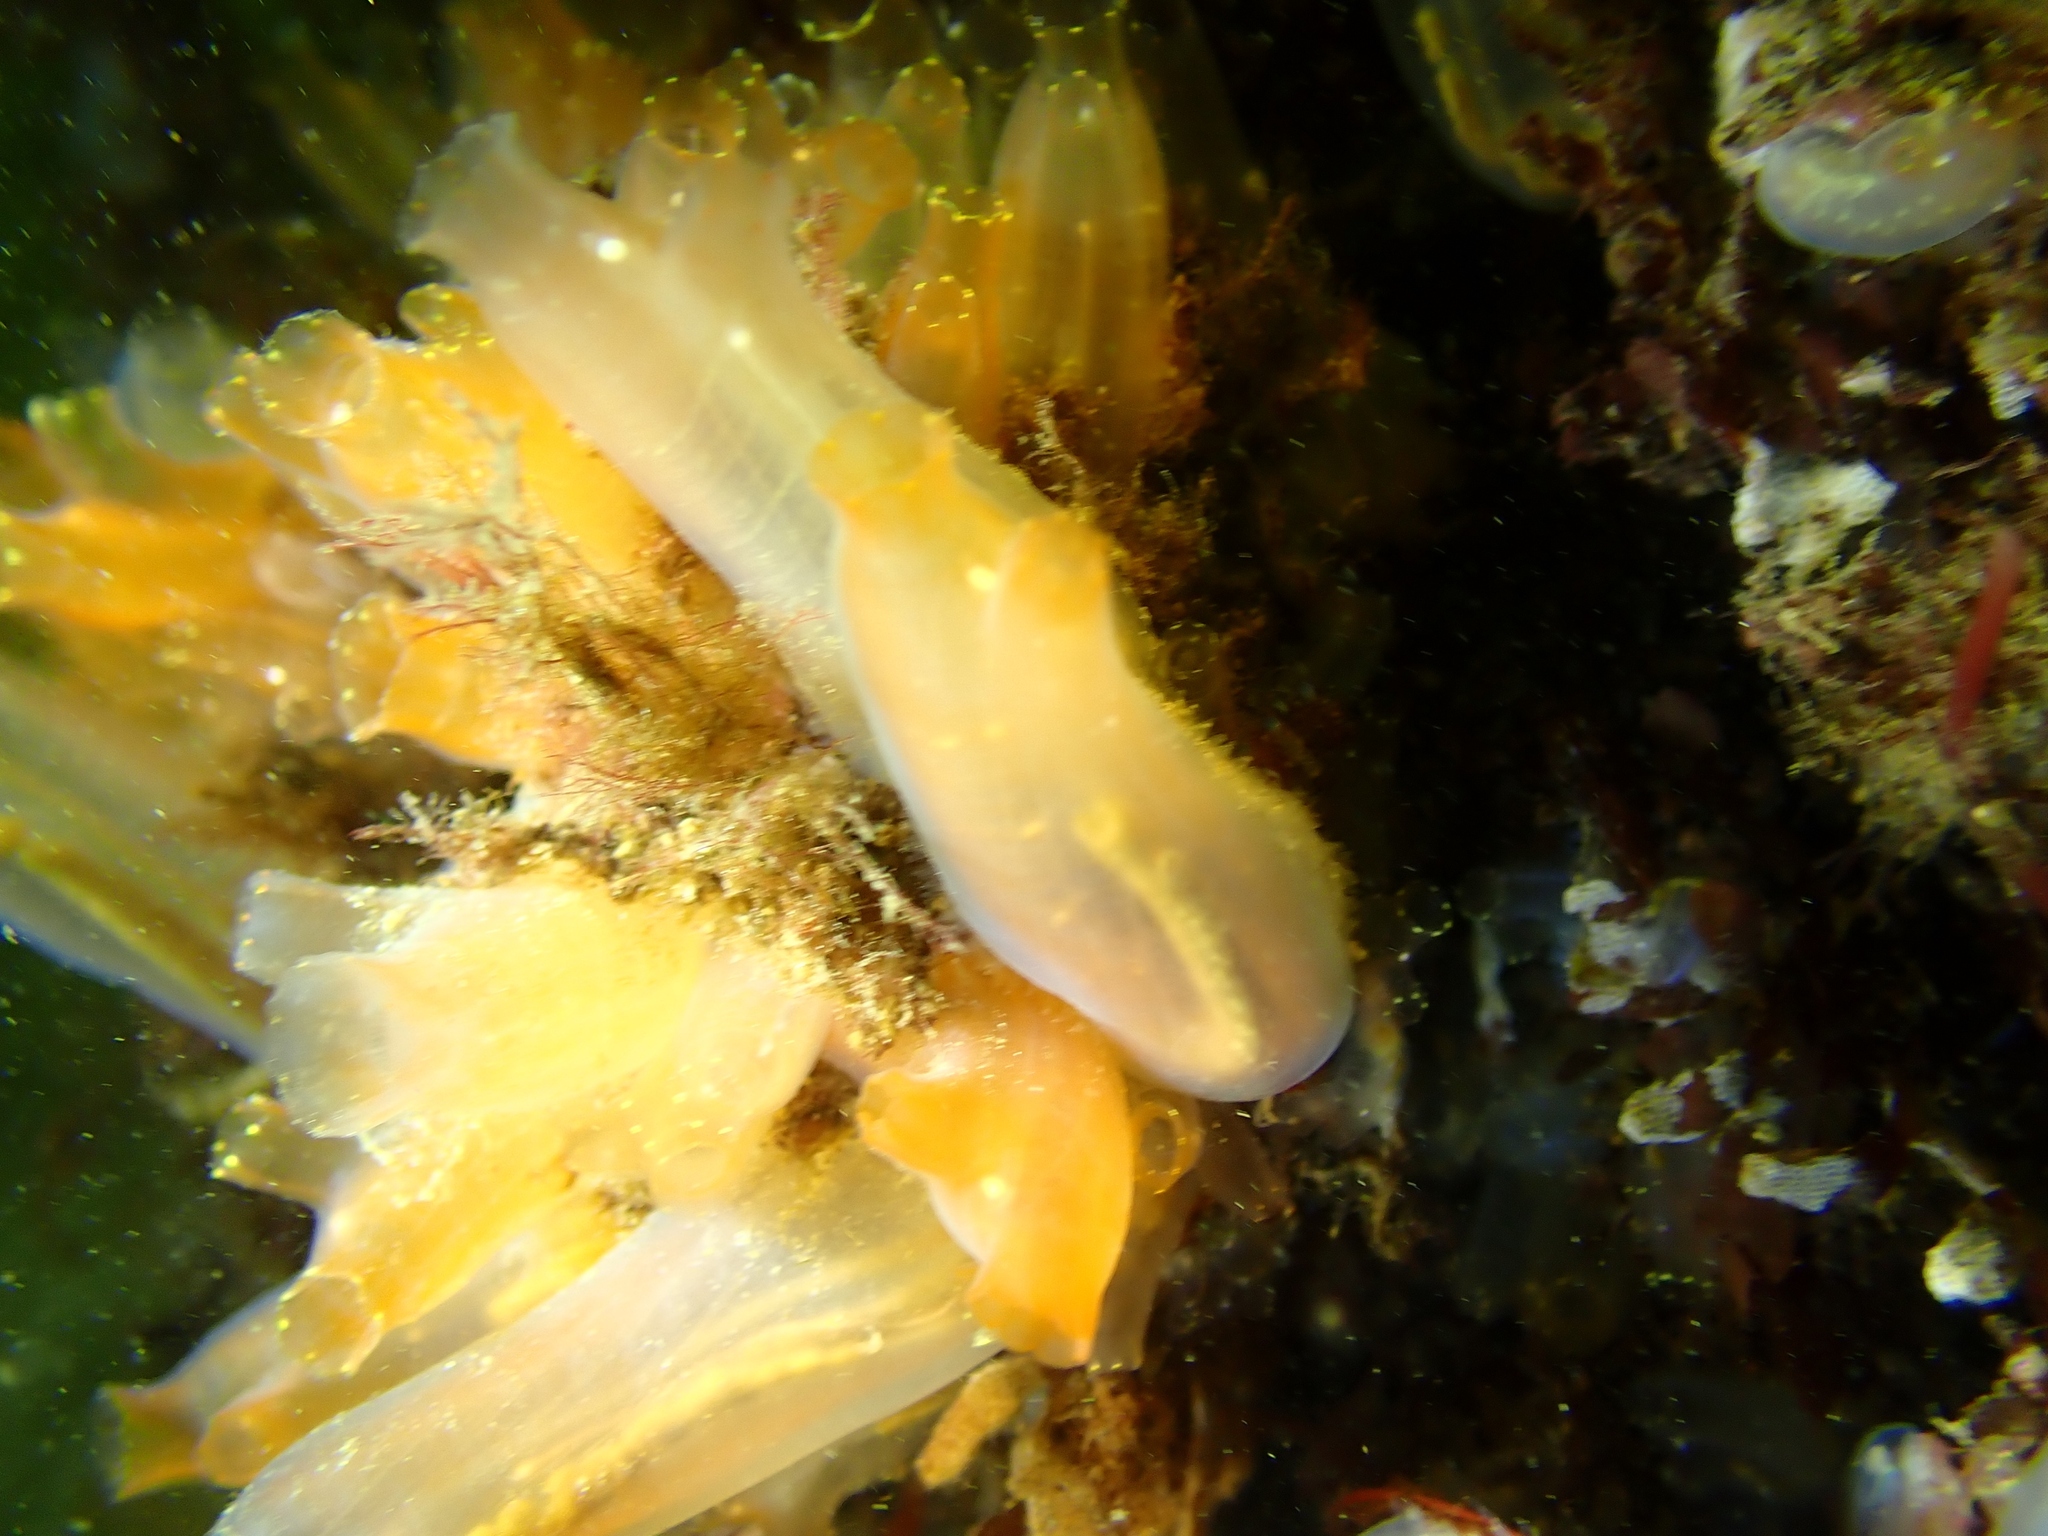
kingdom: Animalia
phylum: Chordata
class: Ascidiacea
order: Phlebobranchia
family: Cionidae
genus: Ciona
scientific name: Ciona intestinalis
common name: Vase tunicate
